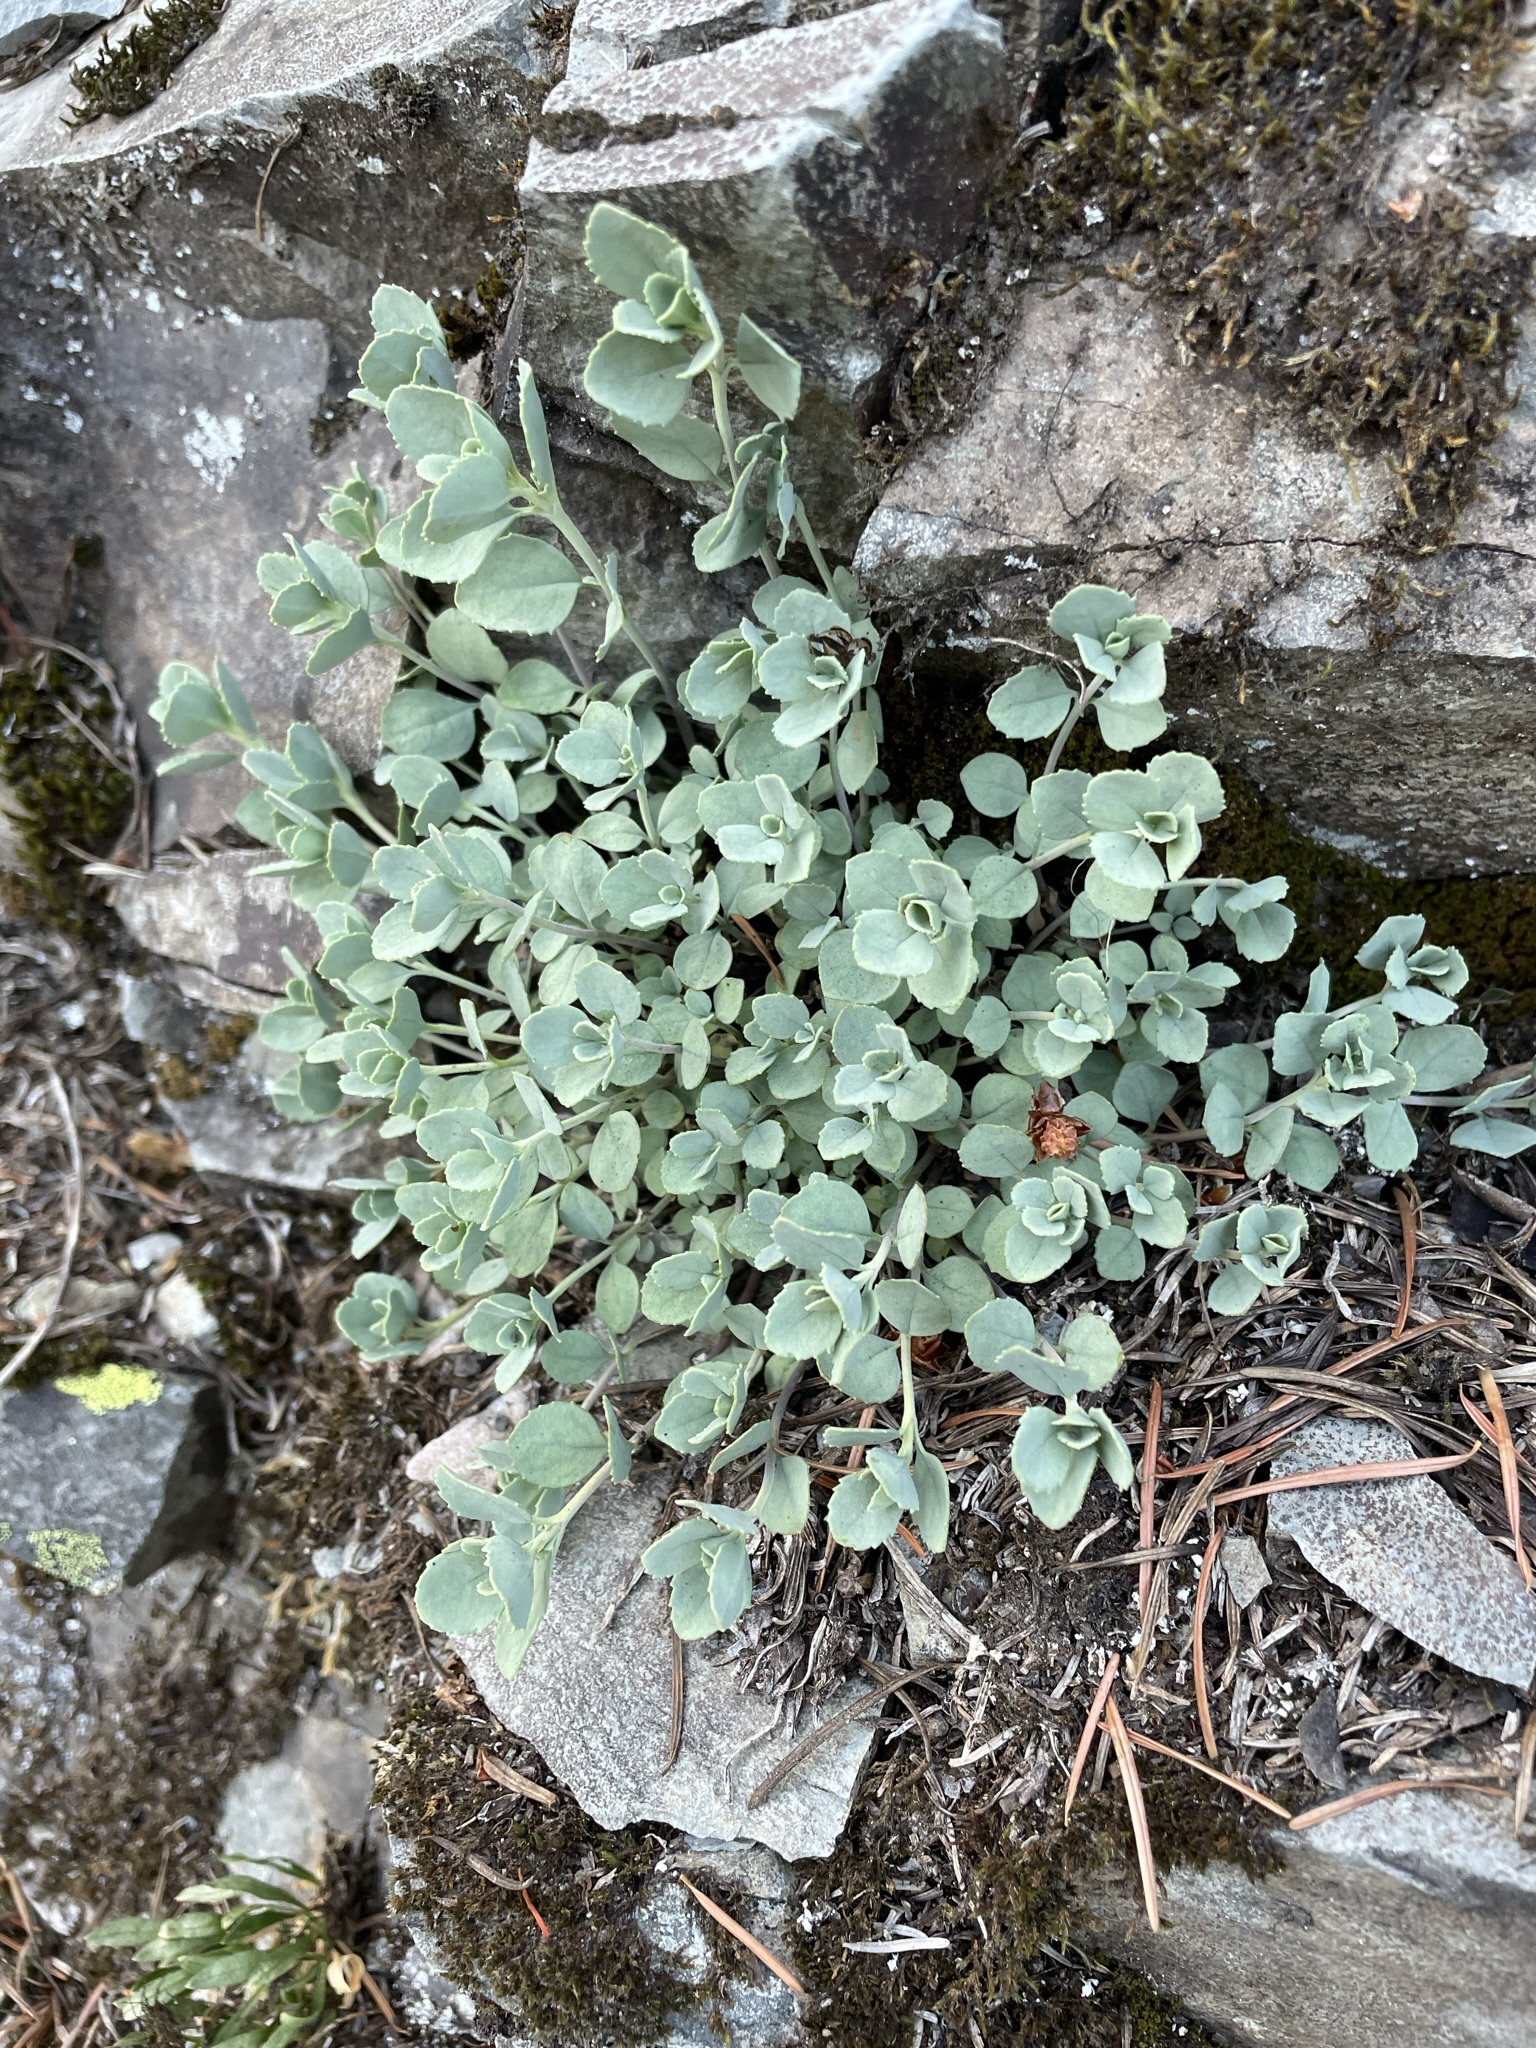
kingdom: Plantae
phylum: Tracheophyta
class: Magnoliopsida
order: Lamiales
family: Plantaginaceae
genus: Penstemon
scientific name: Penstemon rupicola
